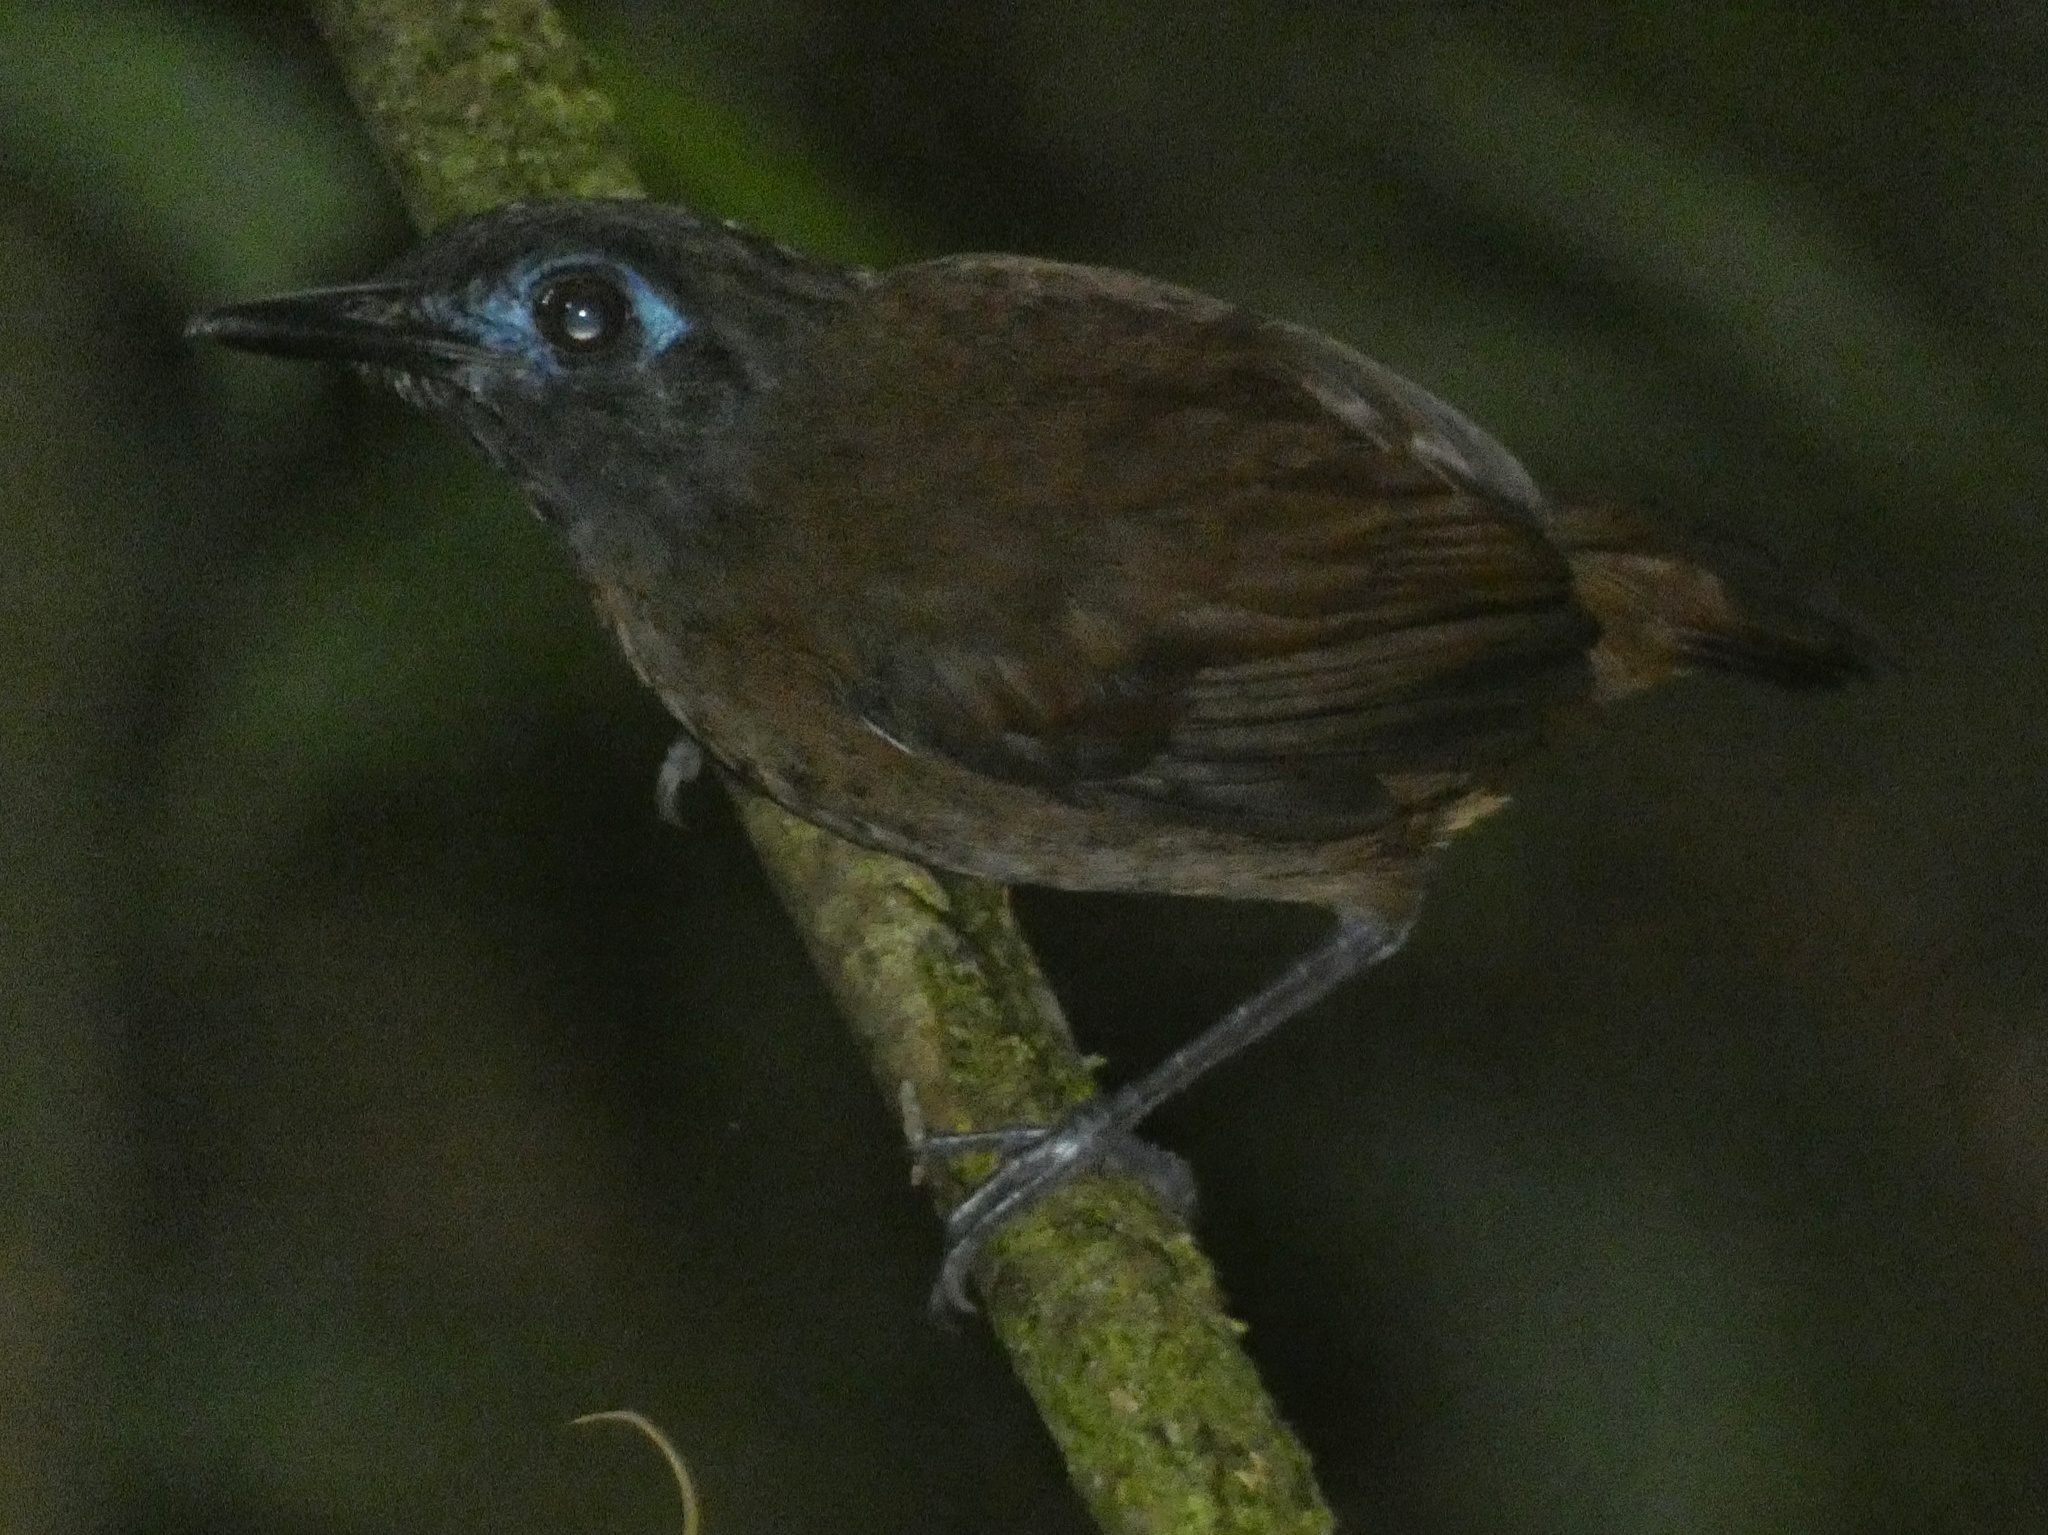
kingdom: Animalia
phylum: Chordata
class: Aves
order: Passeriformes
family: Thamnophilidae
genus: Myrmeciza
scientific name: Myrmeciza exsul
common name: Chestnut-backed antbird
